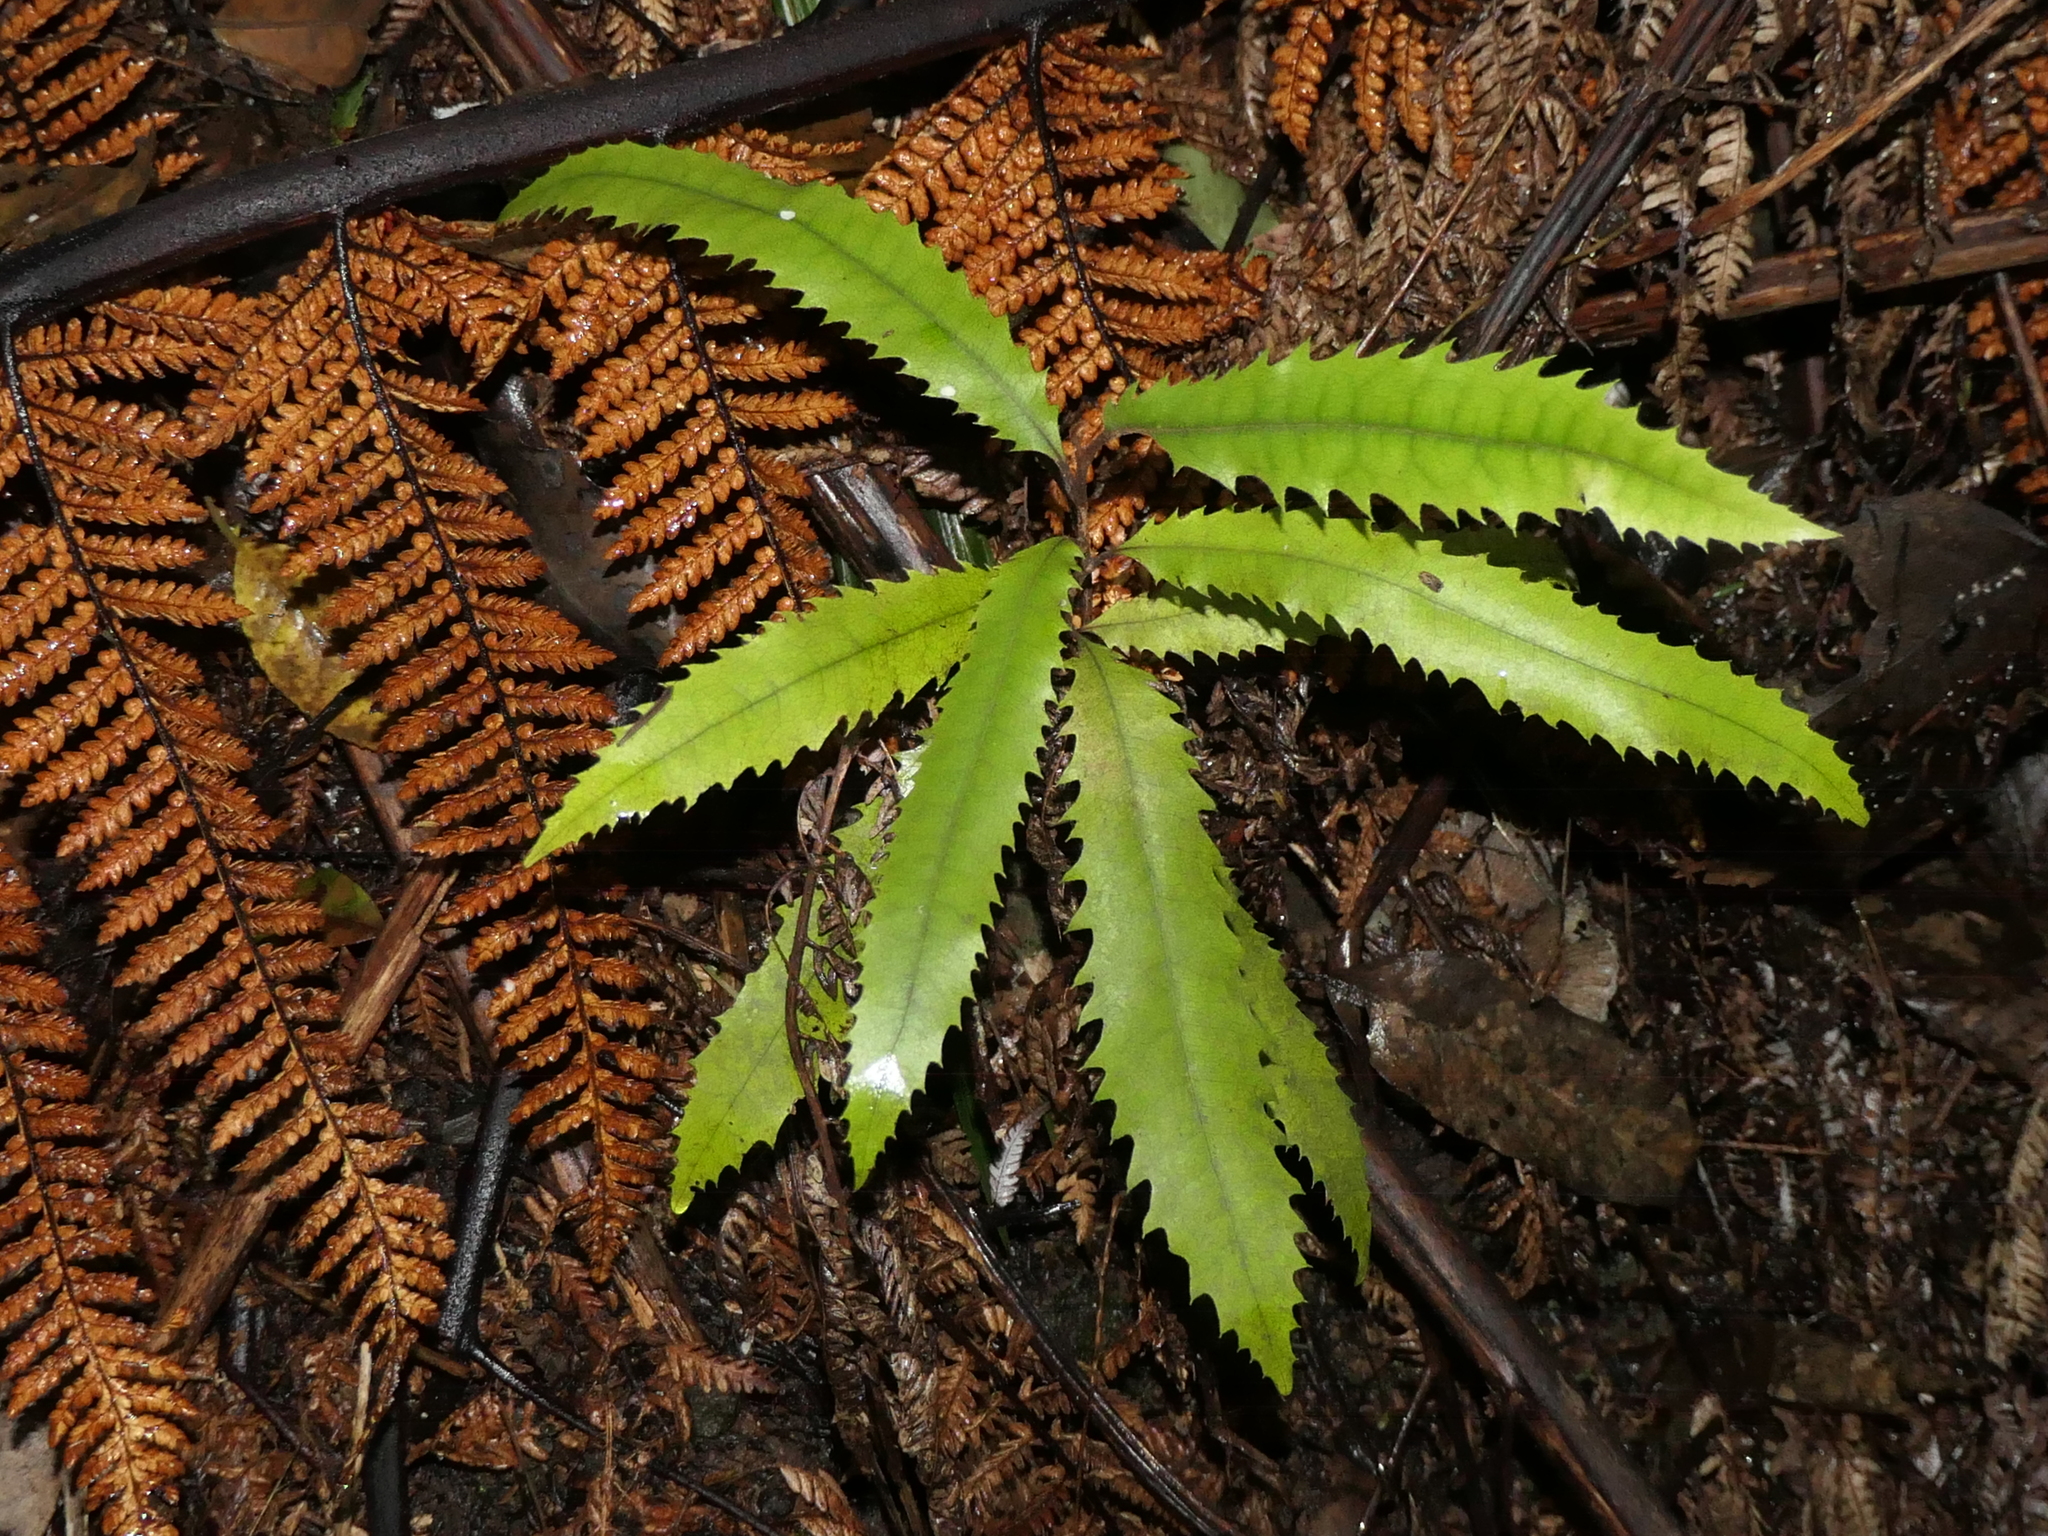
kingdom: Plantae
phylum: Tracheophyta
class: Magnoliopsida
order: Proteales
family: Proteaceae
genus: Knightia
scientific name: Knightia excelsa
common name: New zealand-honeysuckle
